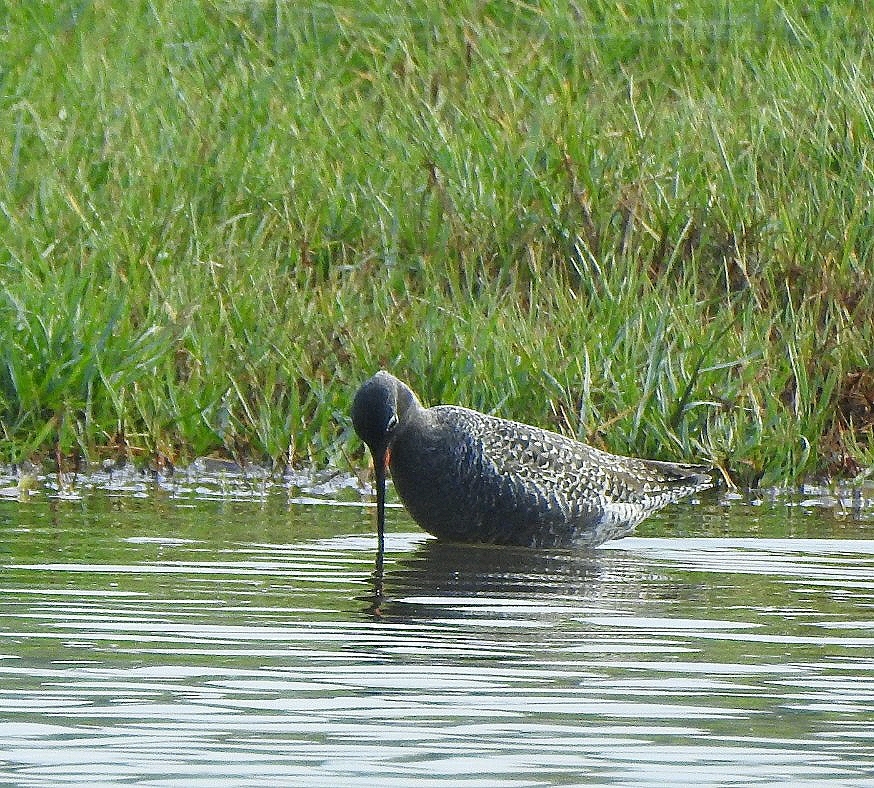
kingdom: Animalia
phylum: Chordata
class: Aves
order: Charadriiformes
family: Scolopacidae
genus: Tringa
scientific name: Tringa erythropus
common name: Spotted redshank
